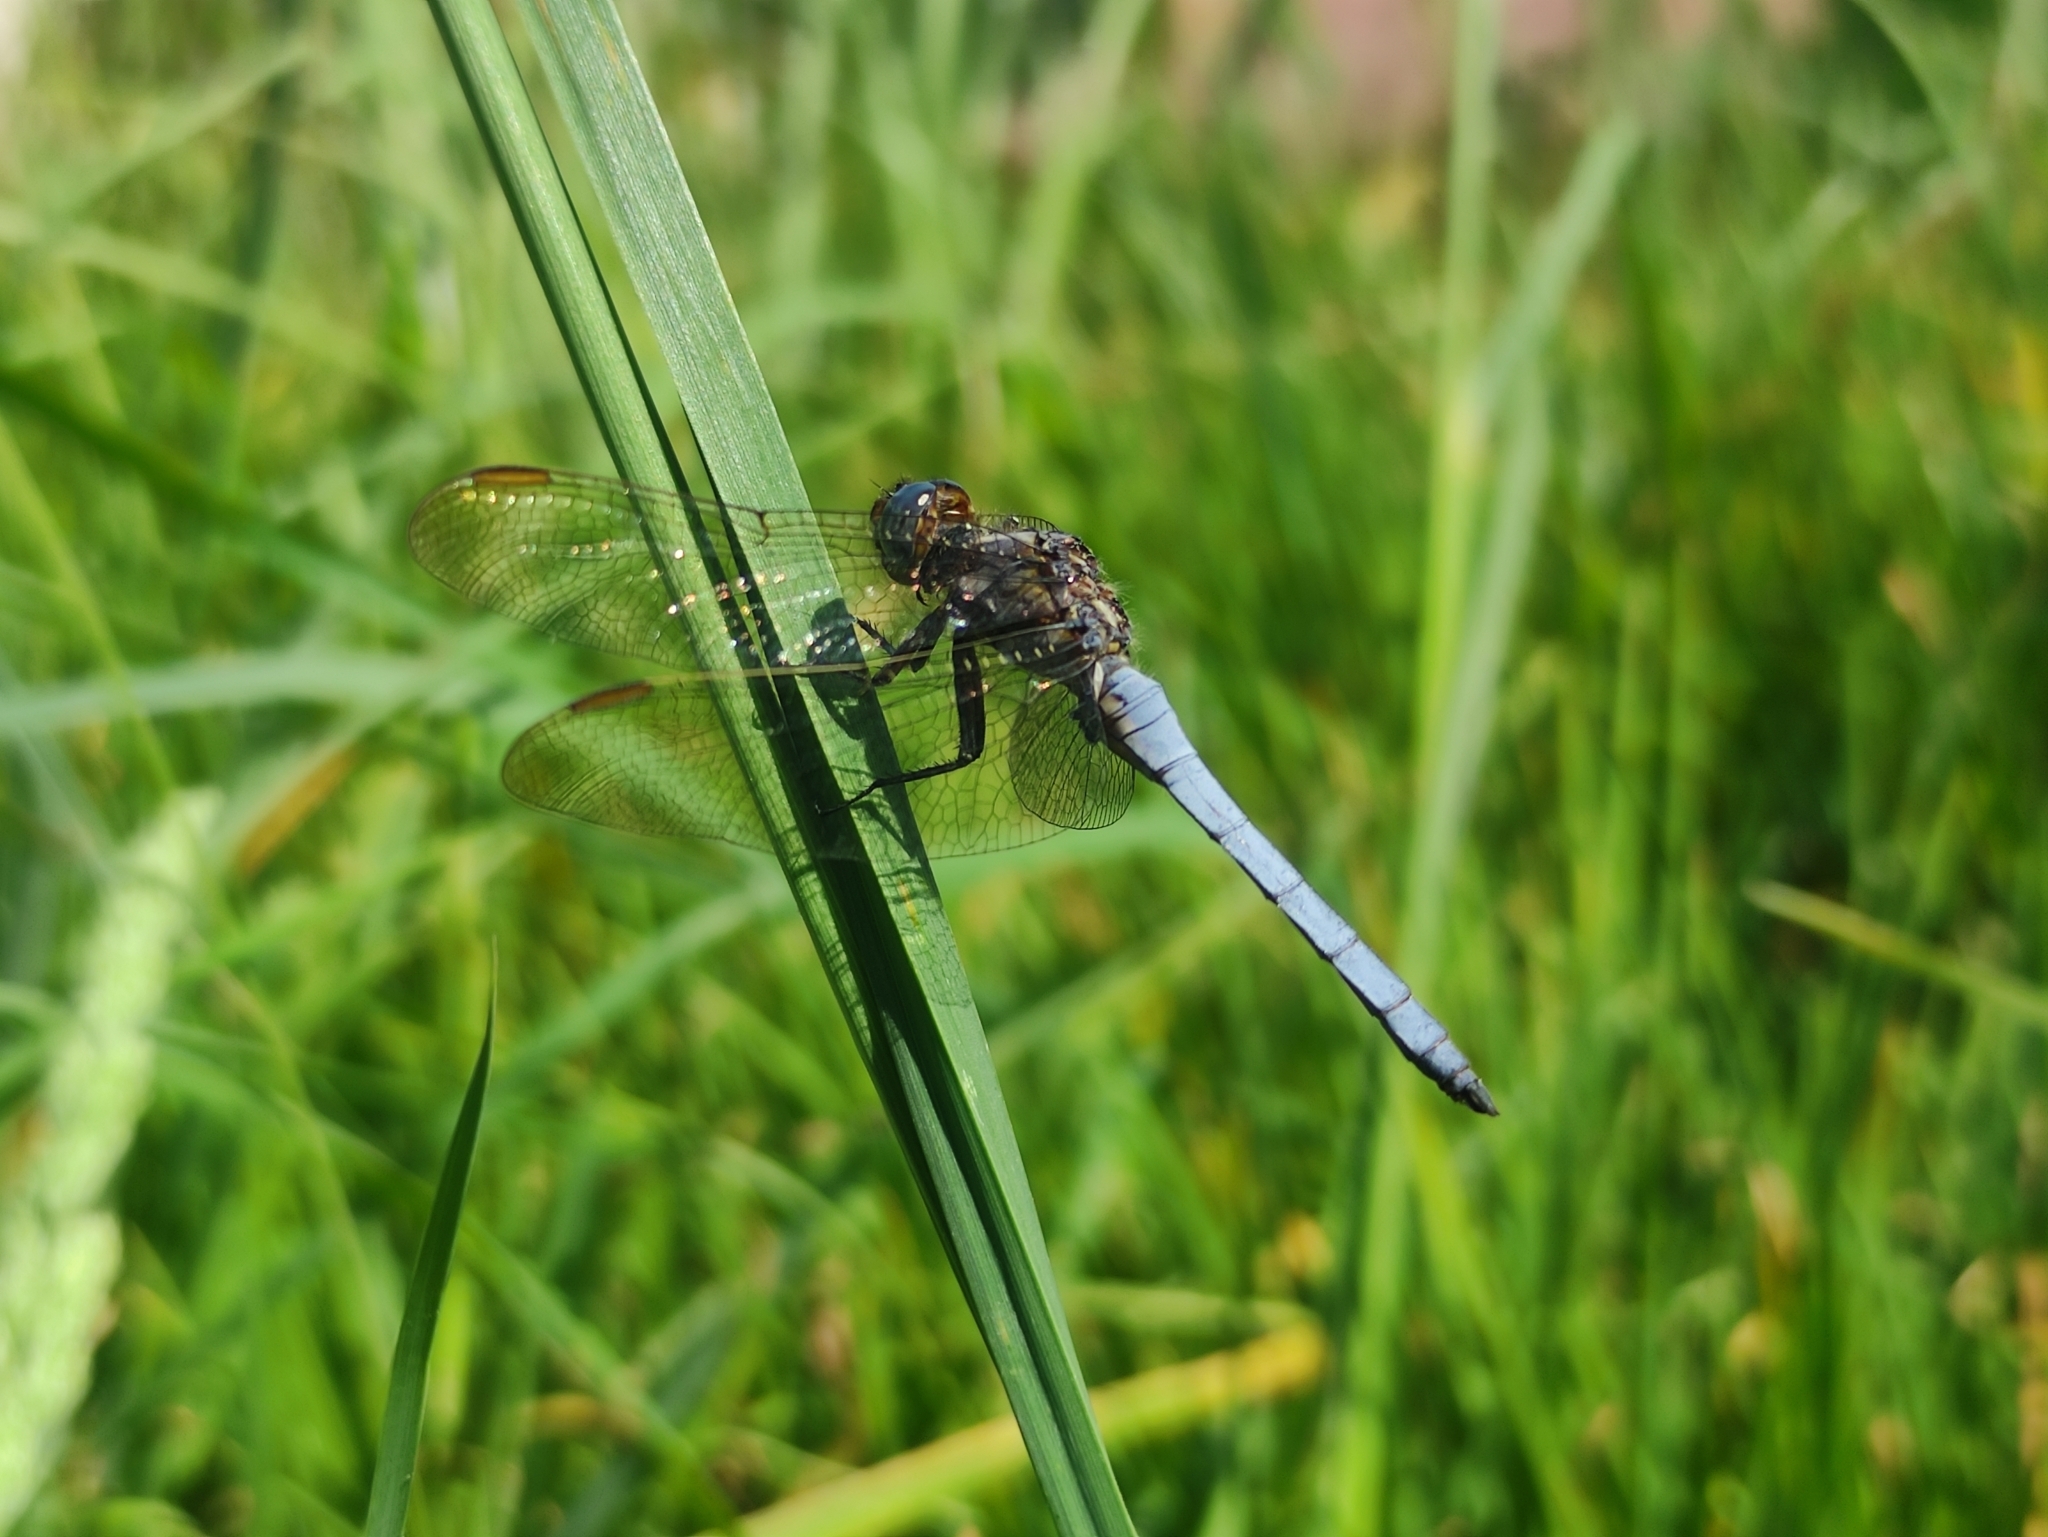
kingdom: Animalia
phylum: Arthropoda
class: Insecta
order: Odonata
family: Libellulidae
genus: Orthetrum
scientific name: Orthetrum coerulescens
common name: Keeled skimmer
